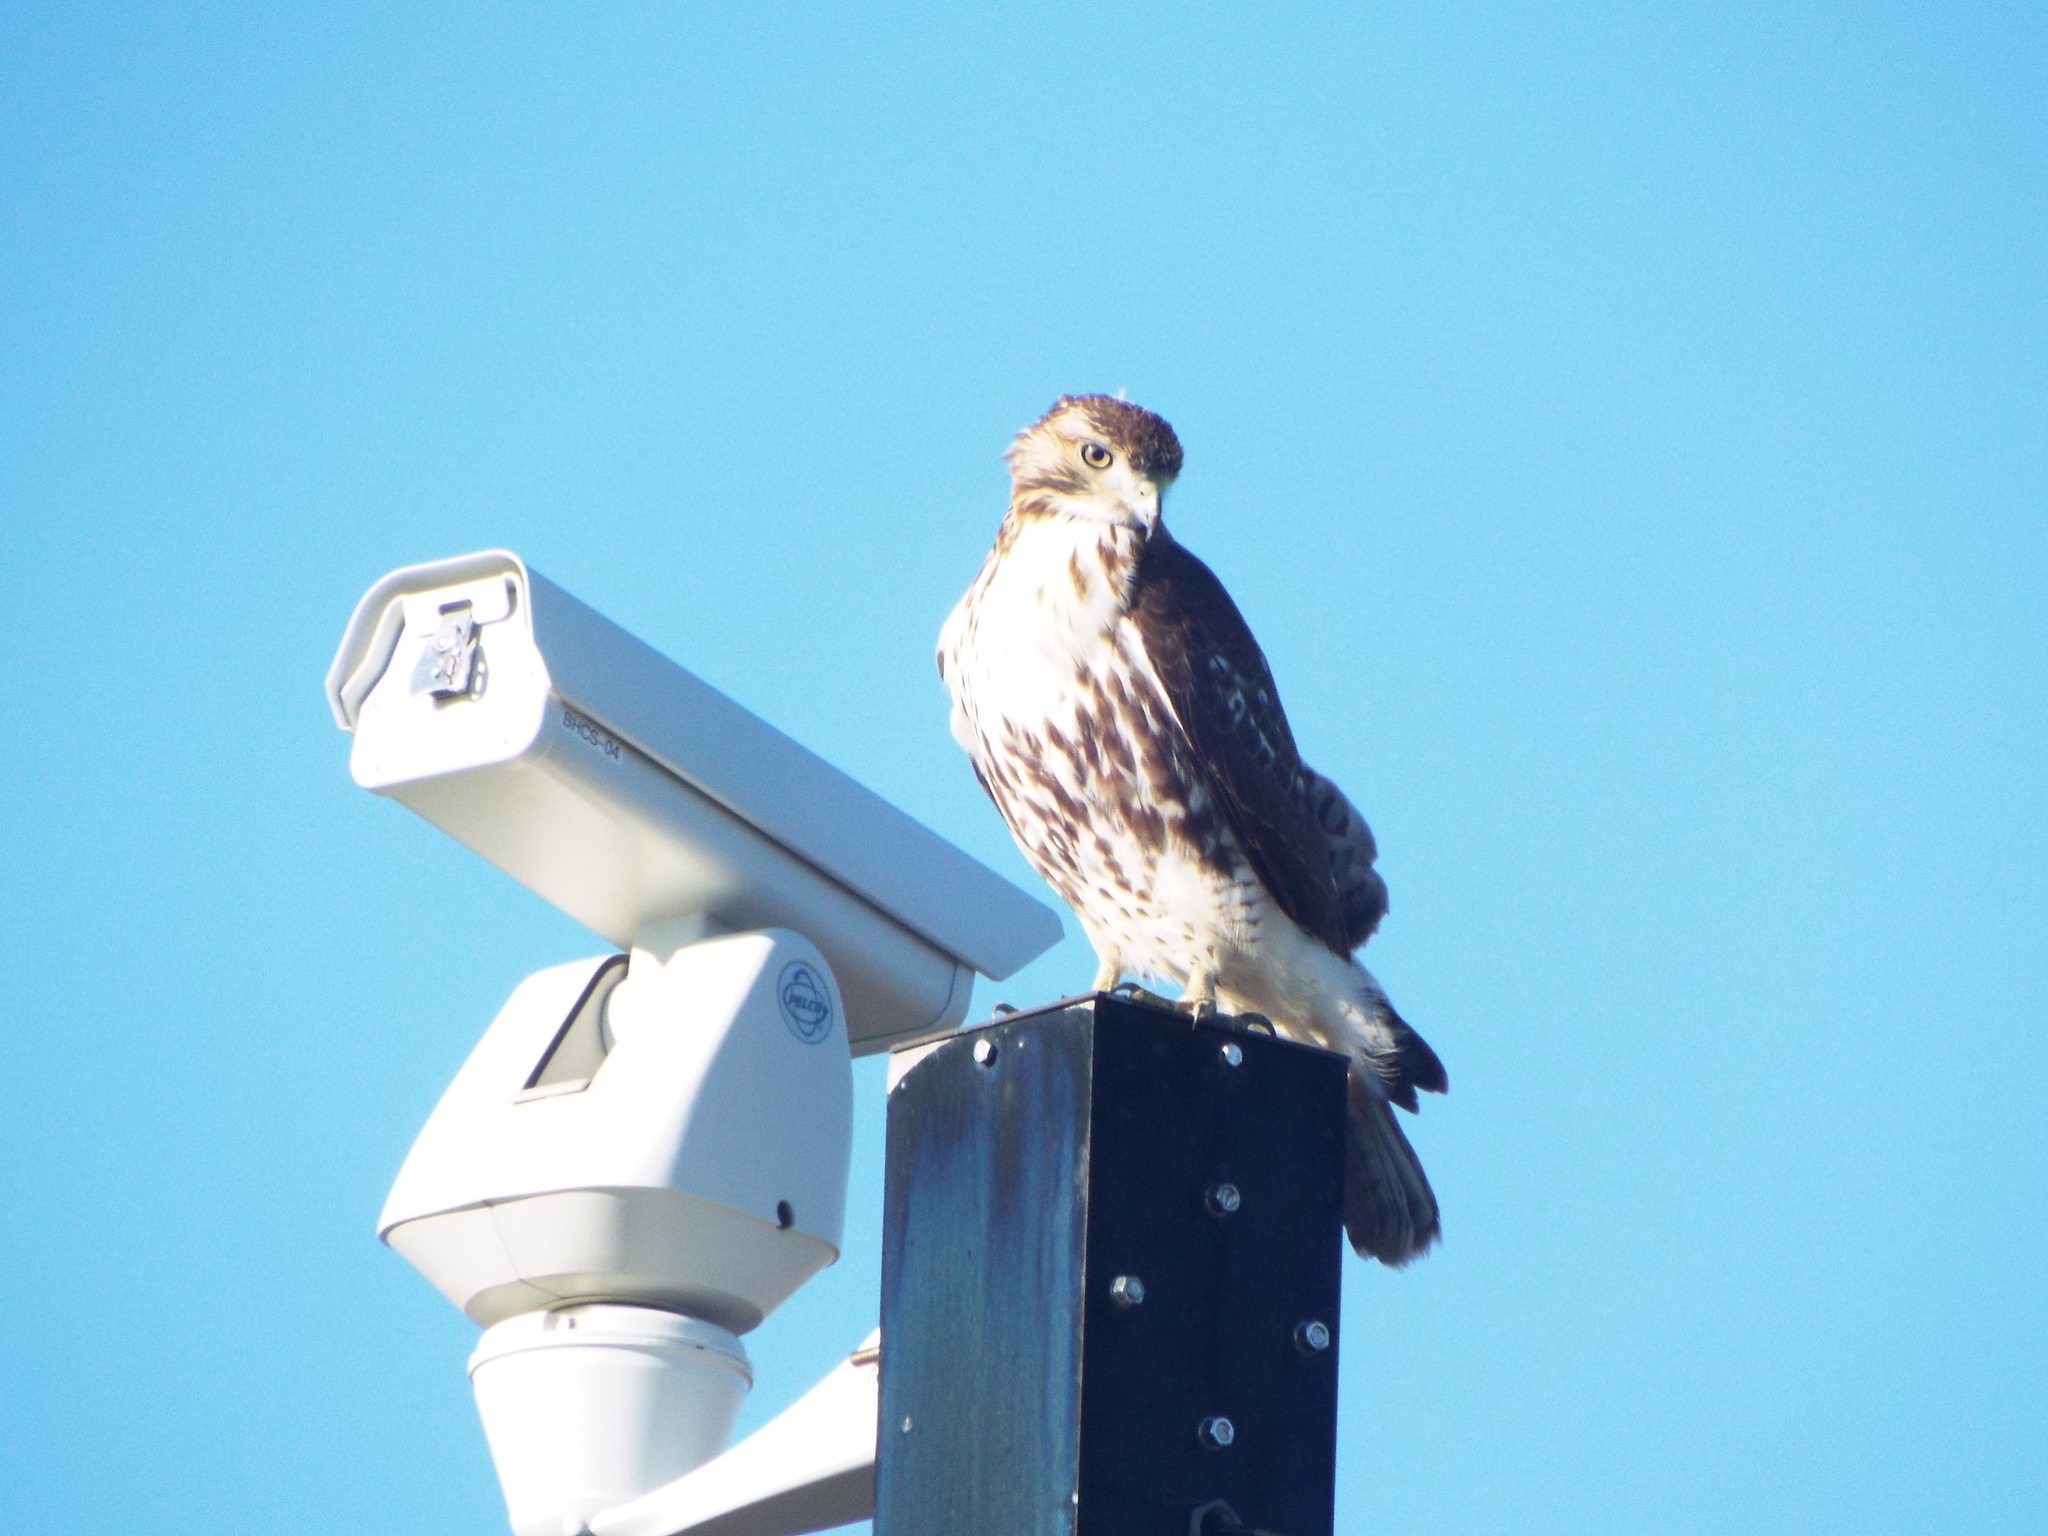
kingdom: Animalia
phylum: Chordata
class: Aves
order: Accipitriformes
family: Accipitridae
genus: Buteo
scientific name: Buteo jamaicensis
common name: Red-tailed hawk
